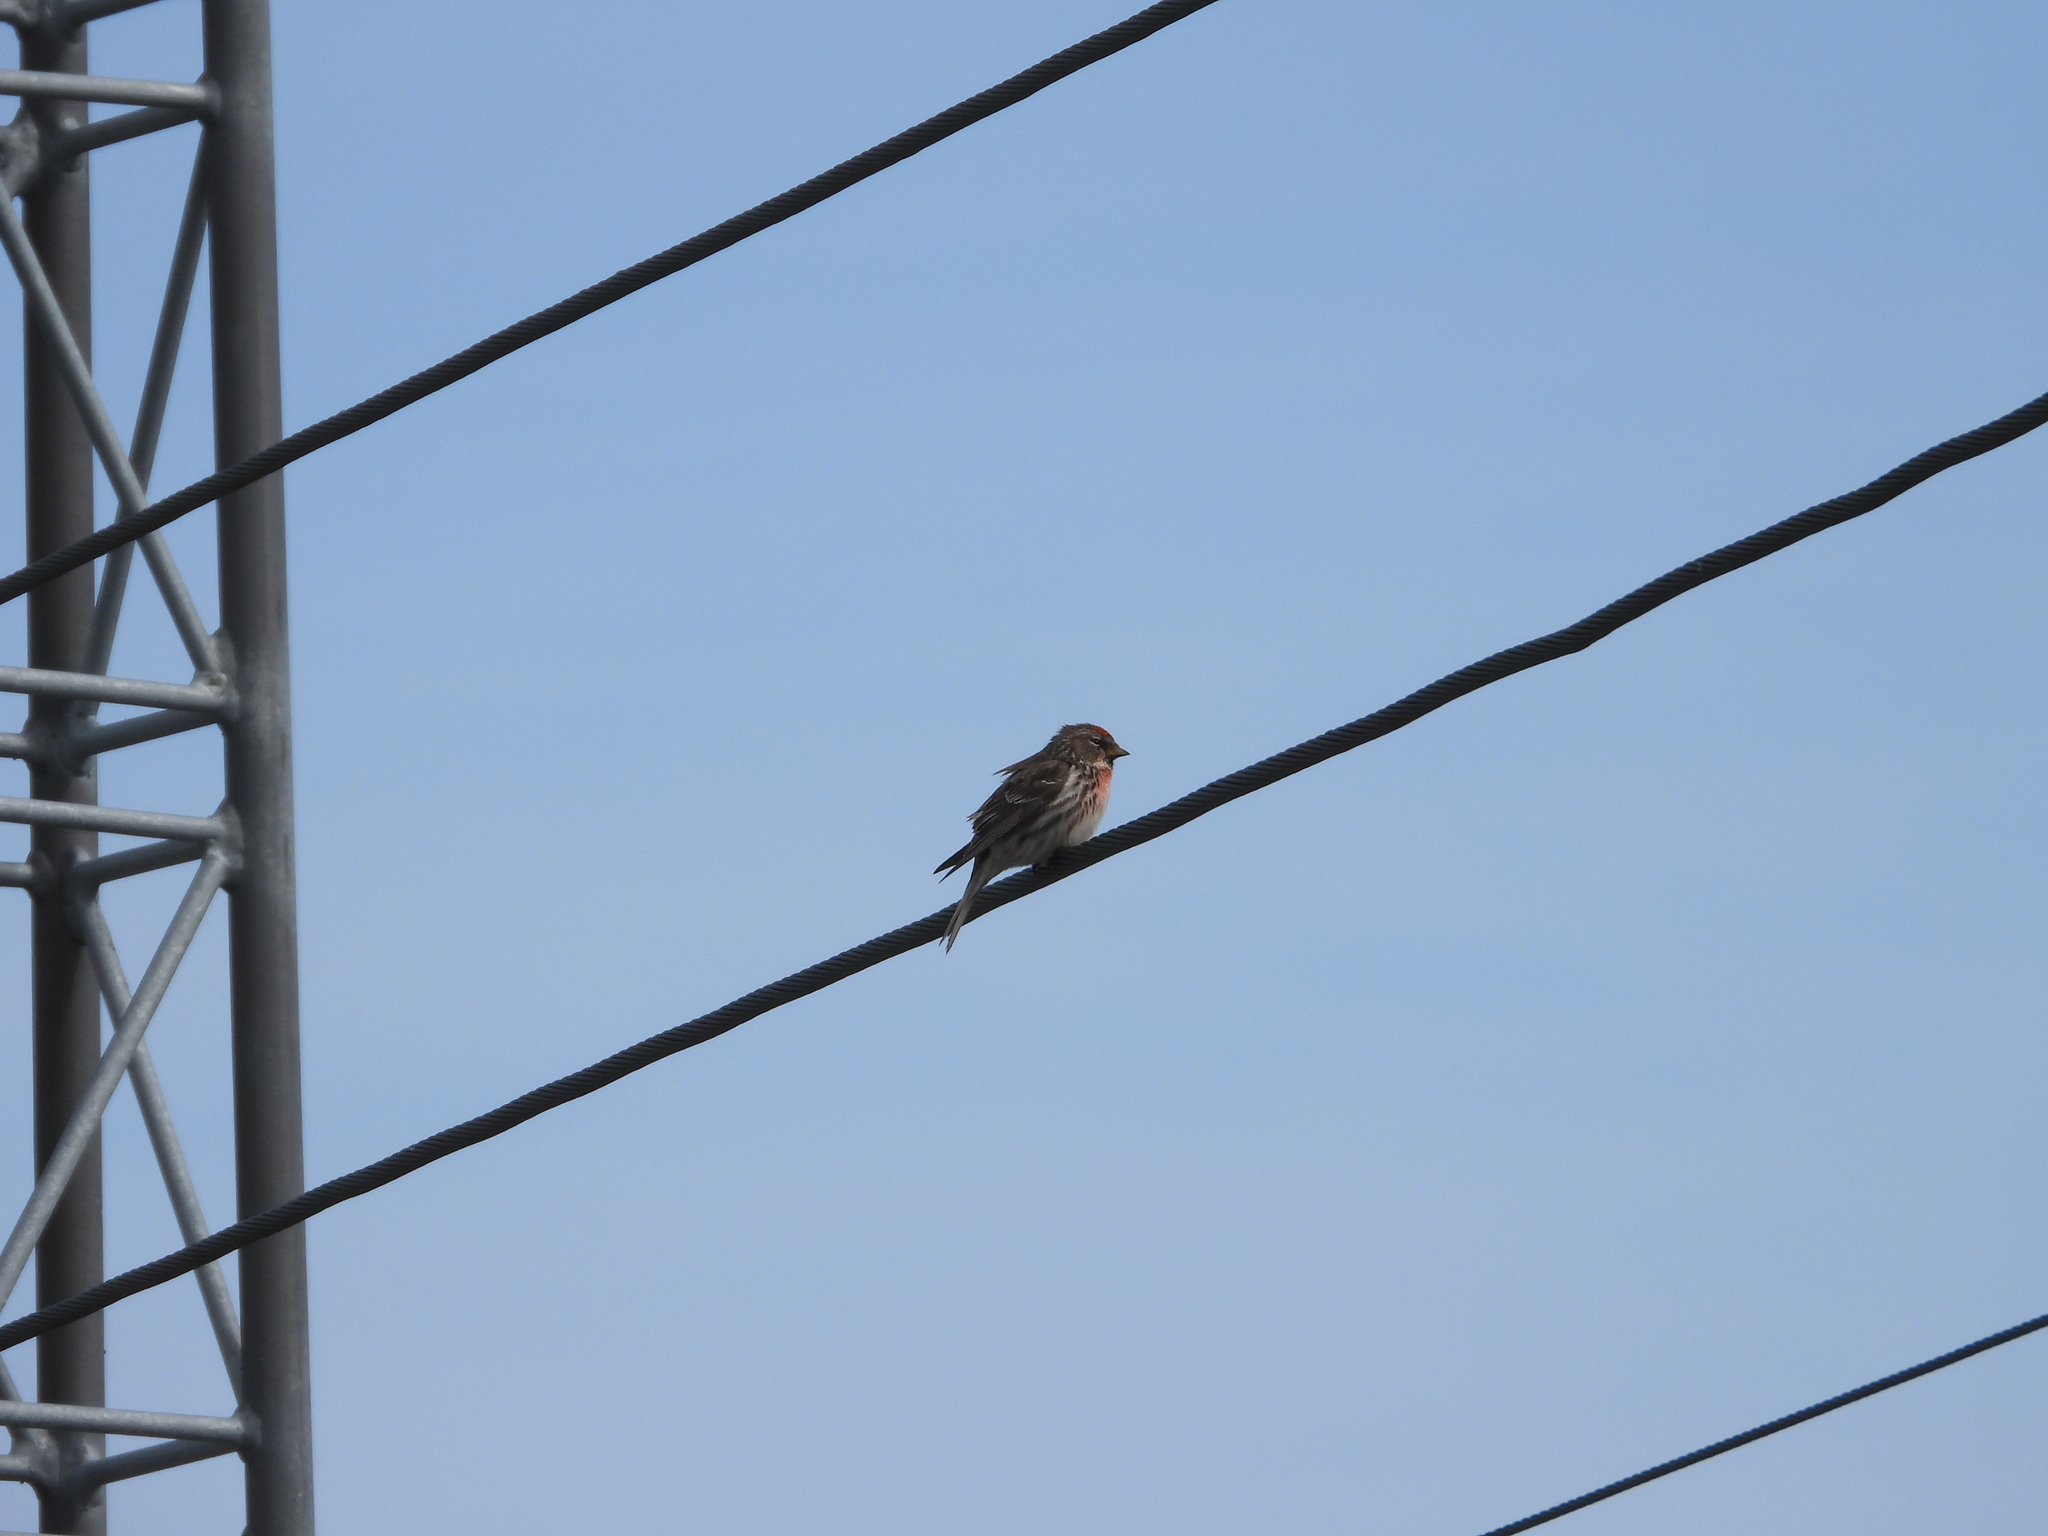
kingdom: Animalia
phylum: Chordata
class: Aves
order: Passeriformes
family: Fringillidae
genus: Acanthis
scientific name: Acanthis flammea
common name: Common redpoll
